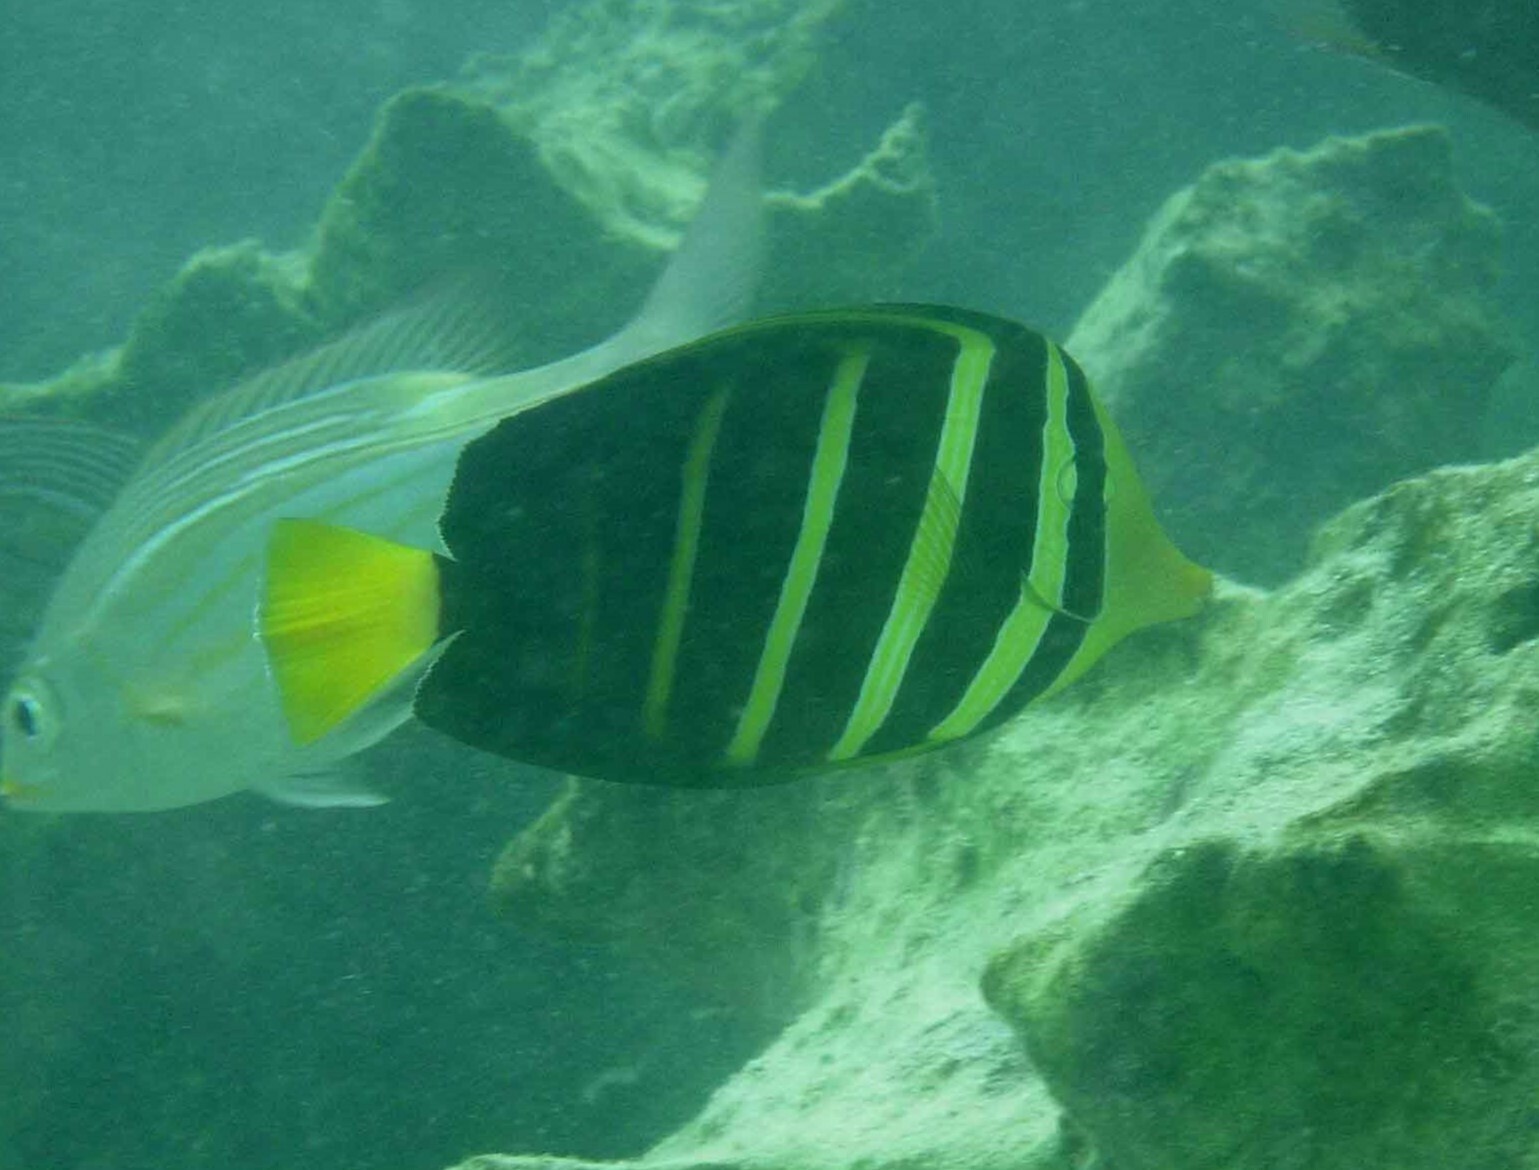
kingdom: Animalia
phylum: Chordata
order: Perciformes
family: Acanthuridae
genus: Zebrasoma
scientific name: Zebrasoma veliferum
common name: Sailfin surgeonfish
